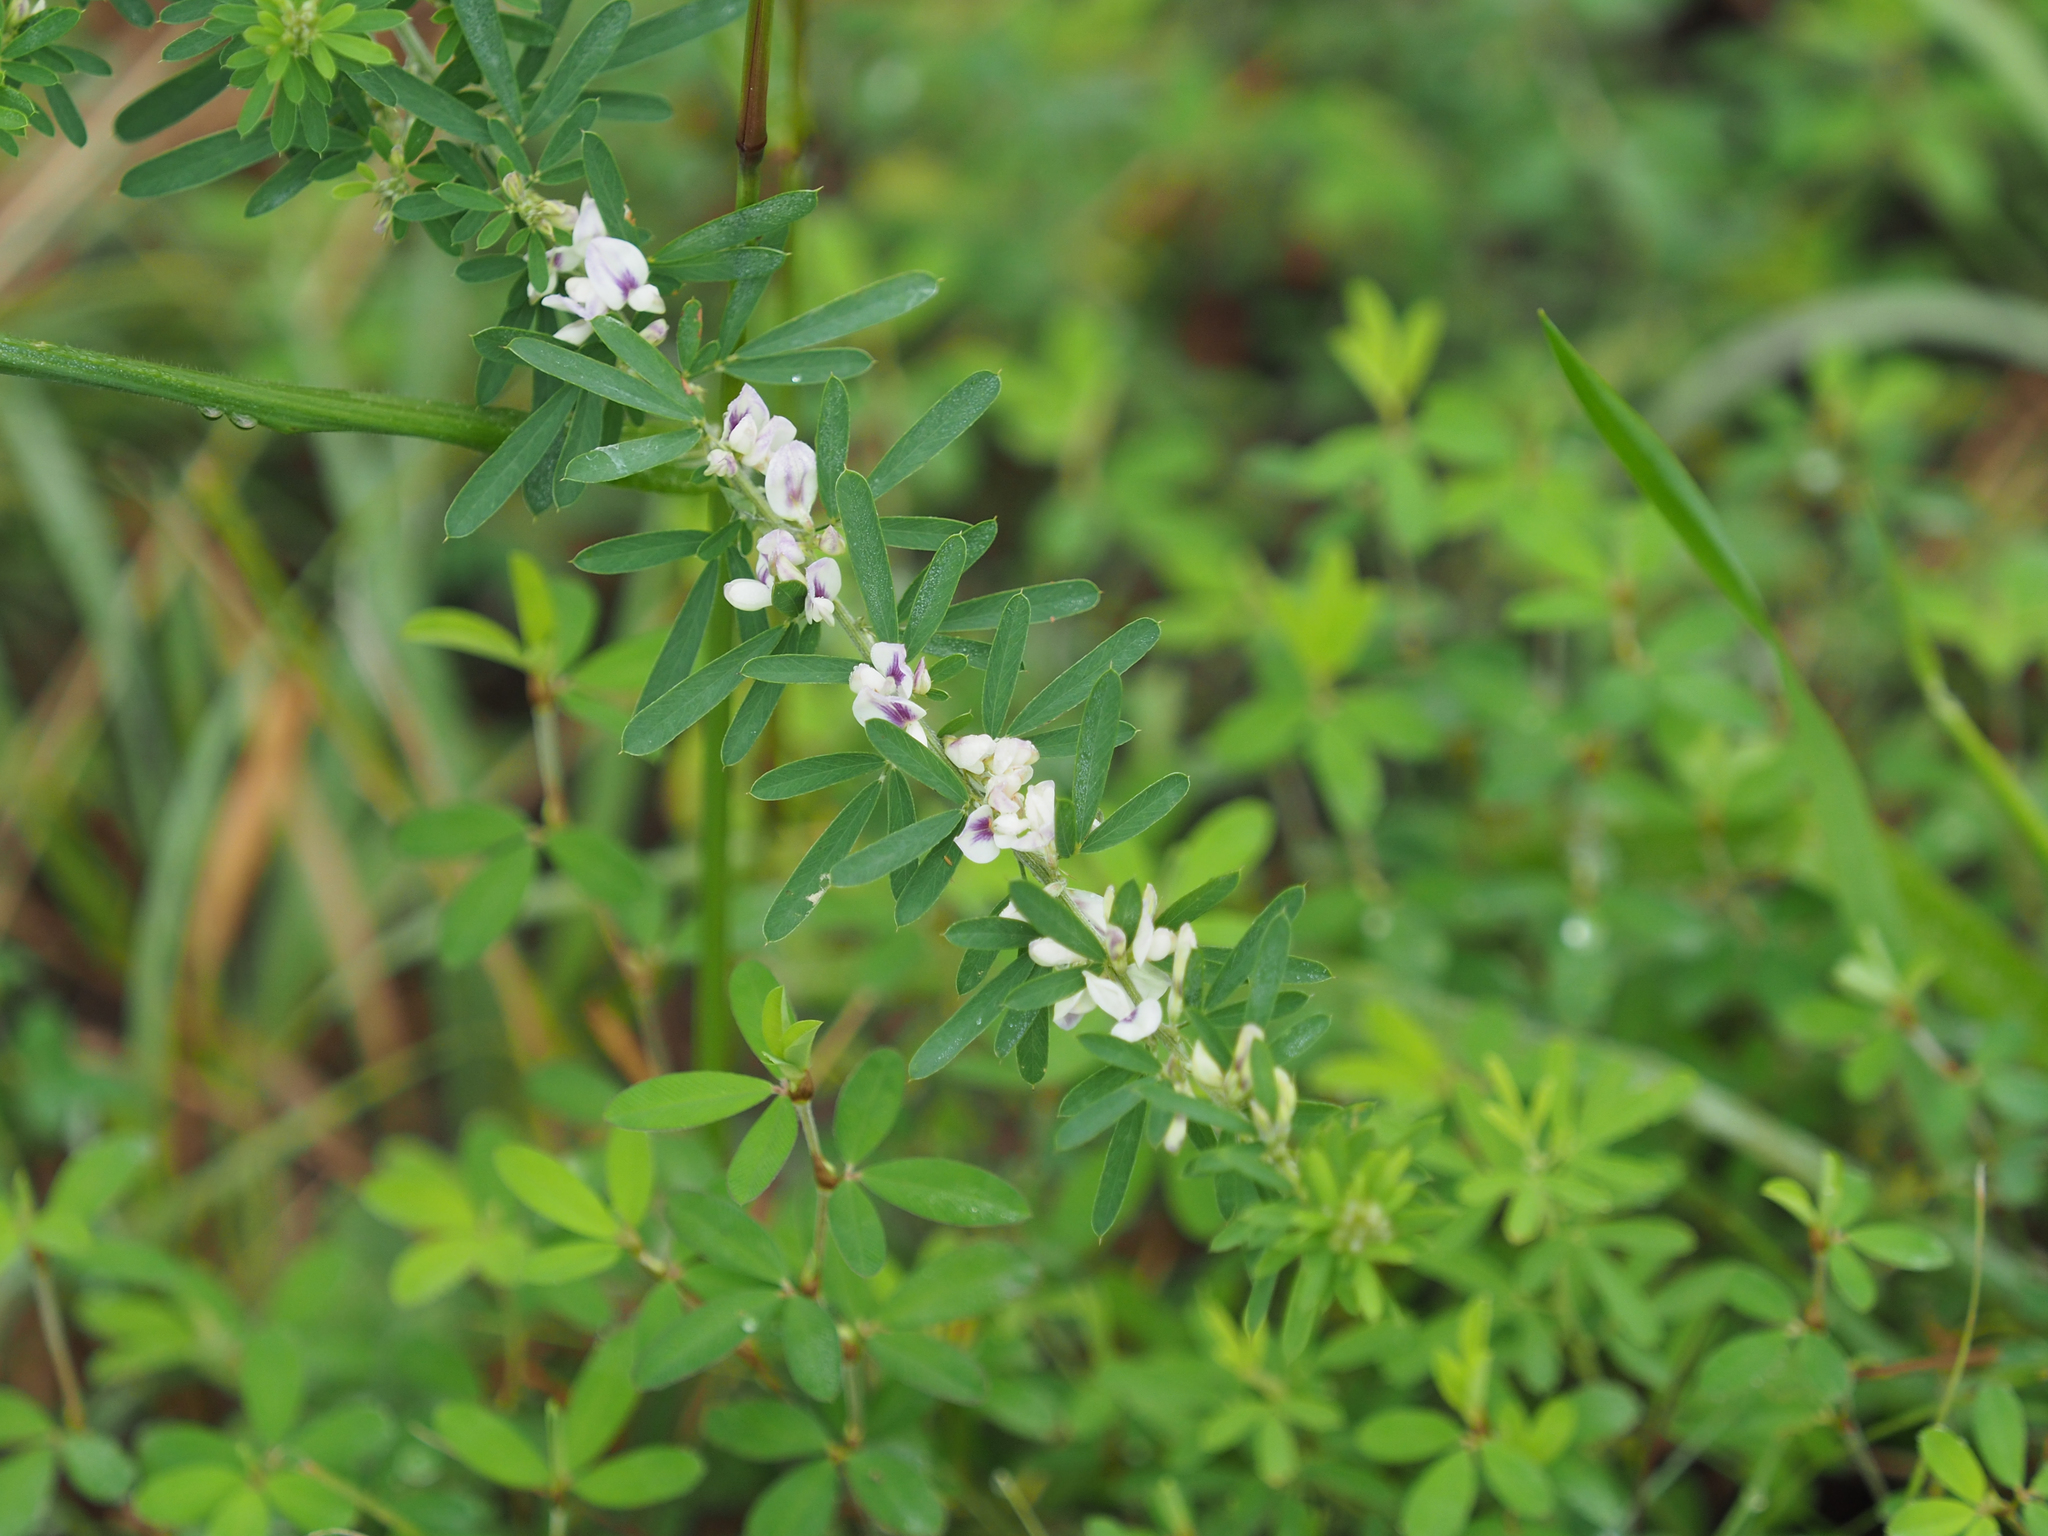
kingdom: Plantae
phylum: Tracheophyta
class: Magnoliopsida
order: Fabales
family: Fabaceae
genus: Lespedeza
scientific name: Lespedeza cuneata
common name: Chinese bush-clover
